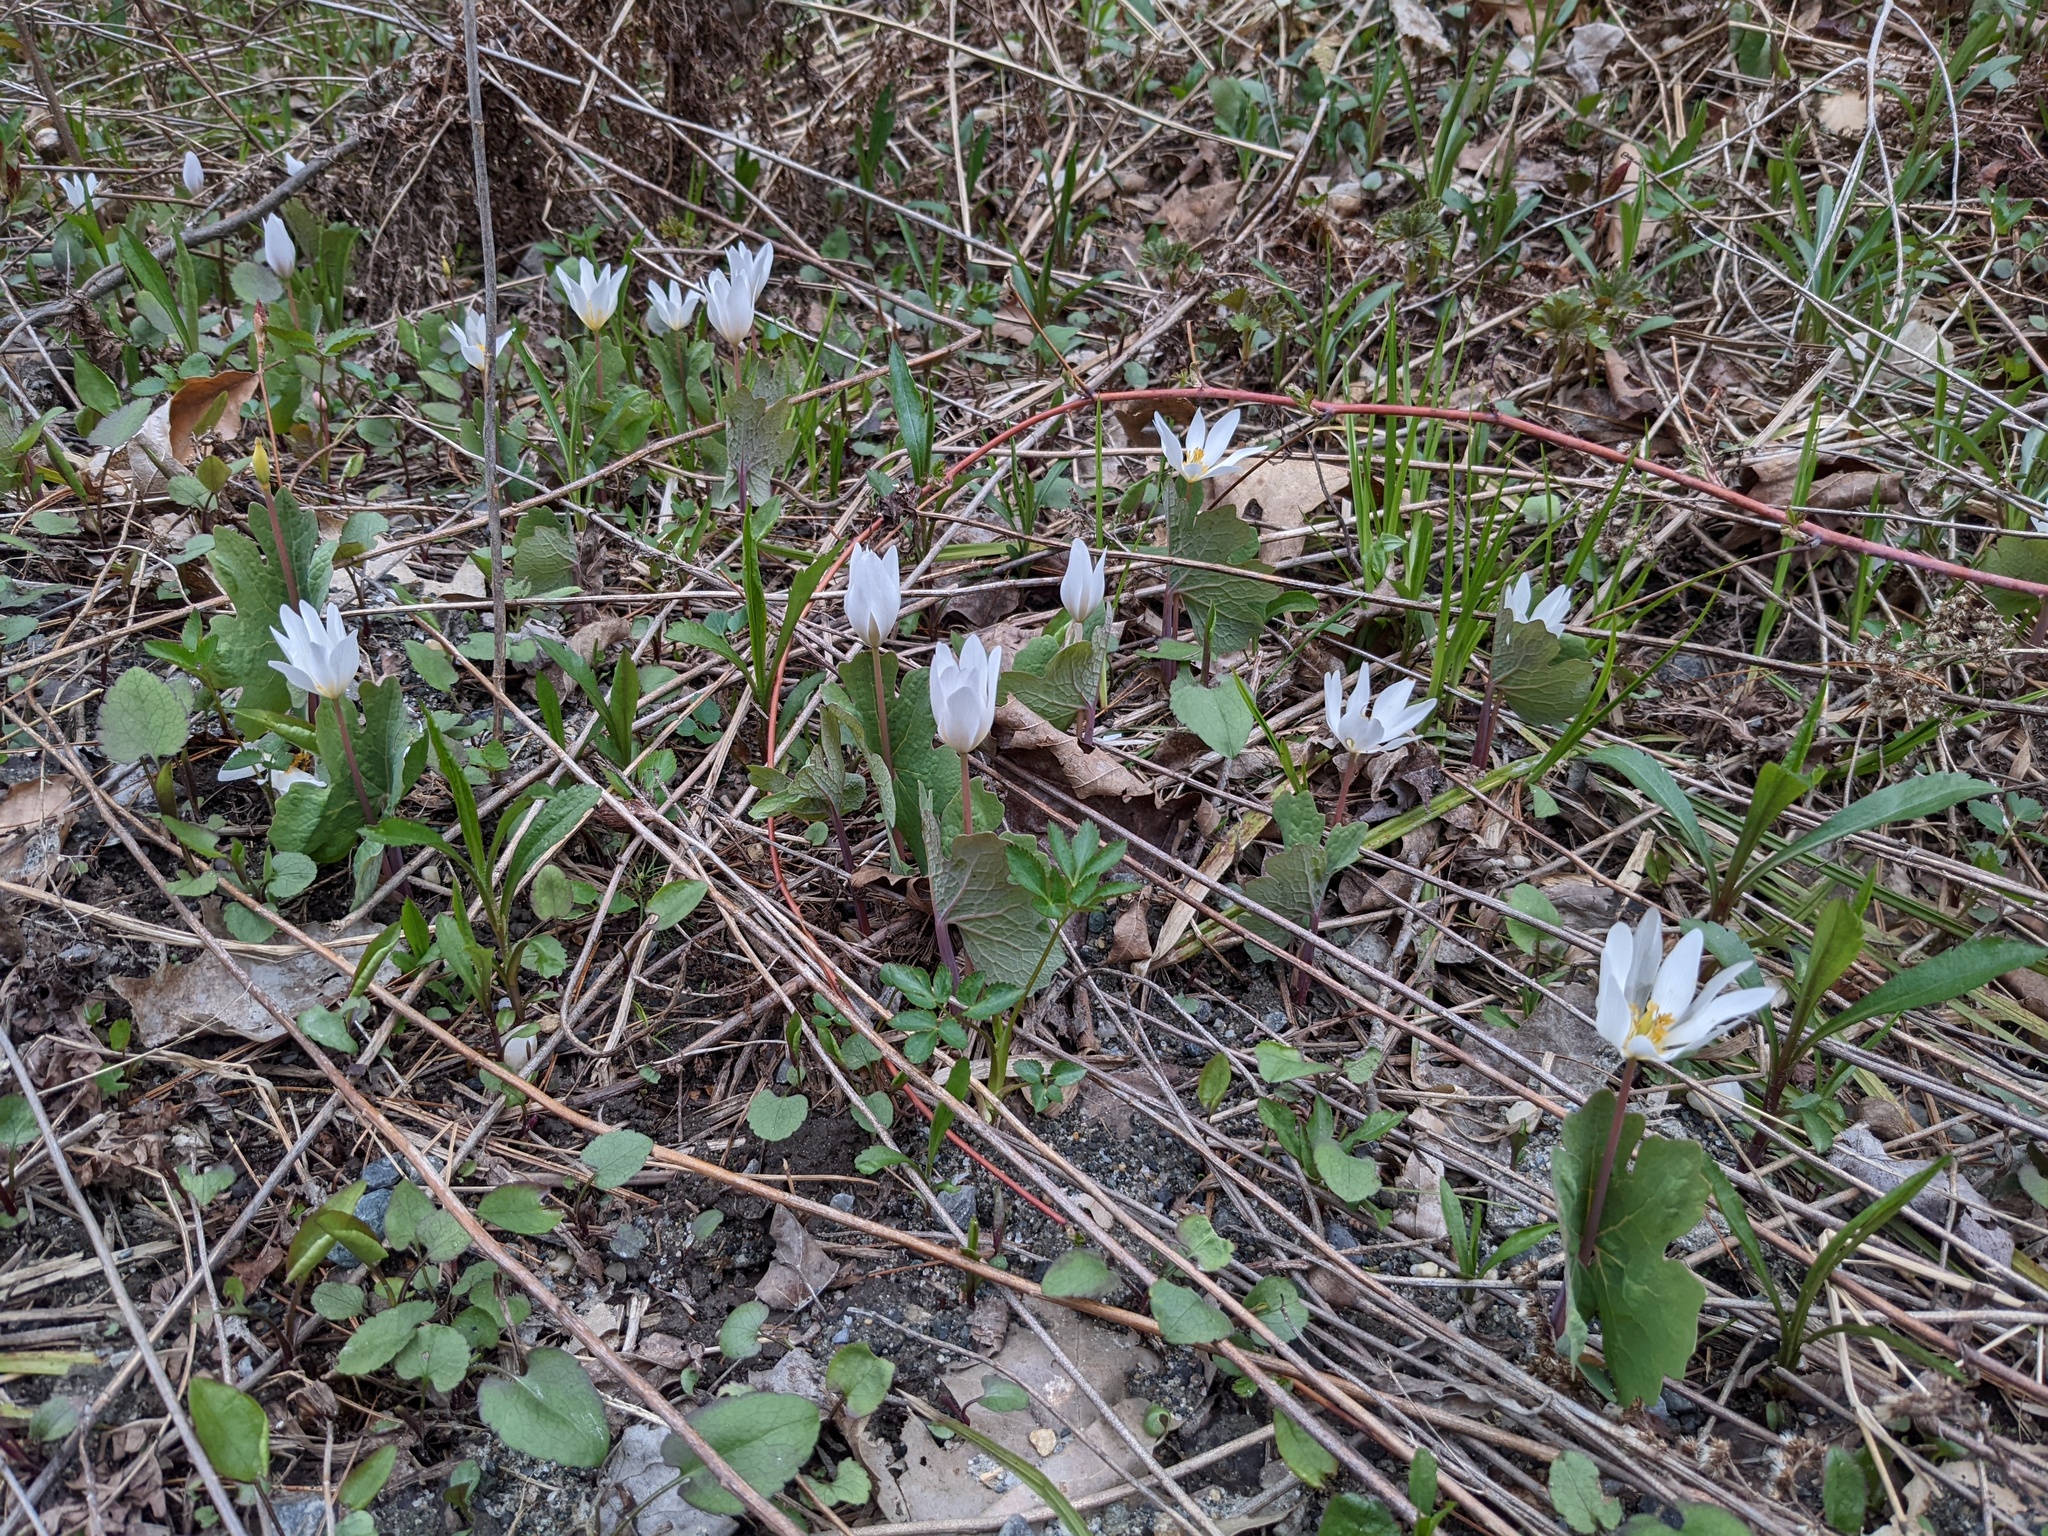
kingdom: Plantae
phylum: Tracheophyta
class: Magnoliopsida
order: Ranunculales
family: Papaveraceae
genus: Sanguinaria
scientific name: Sanguinaria canadensis
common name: Bloodroot
